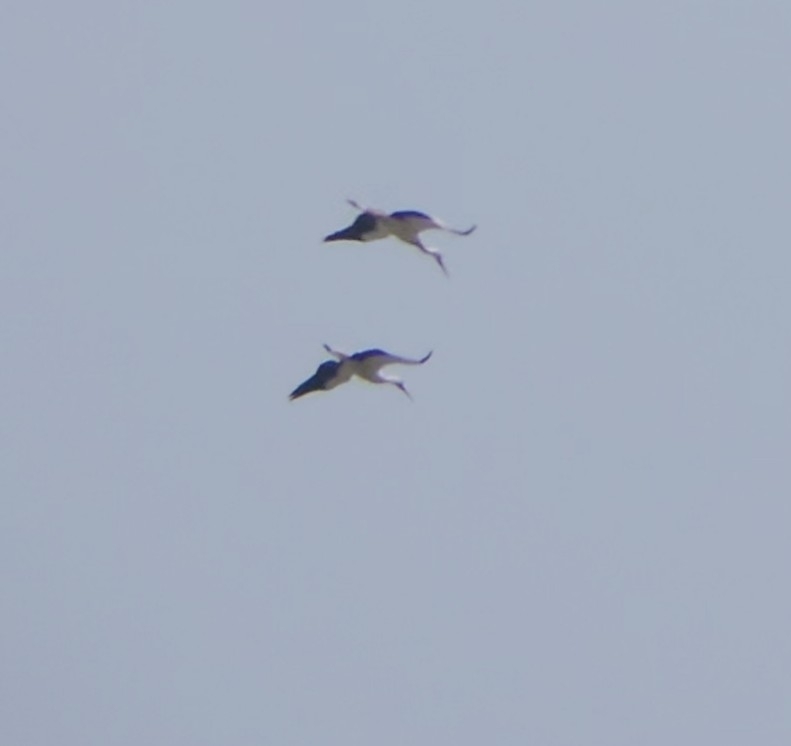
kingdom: Animalia
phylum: Chordata
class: Aves
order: Ciconiiformes
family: Ciconiidae
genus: Ciconia
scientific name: Ciconia ciconia
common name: White stork
